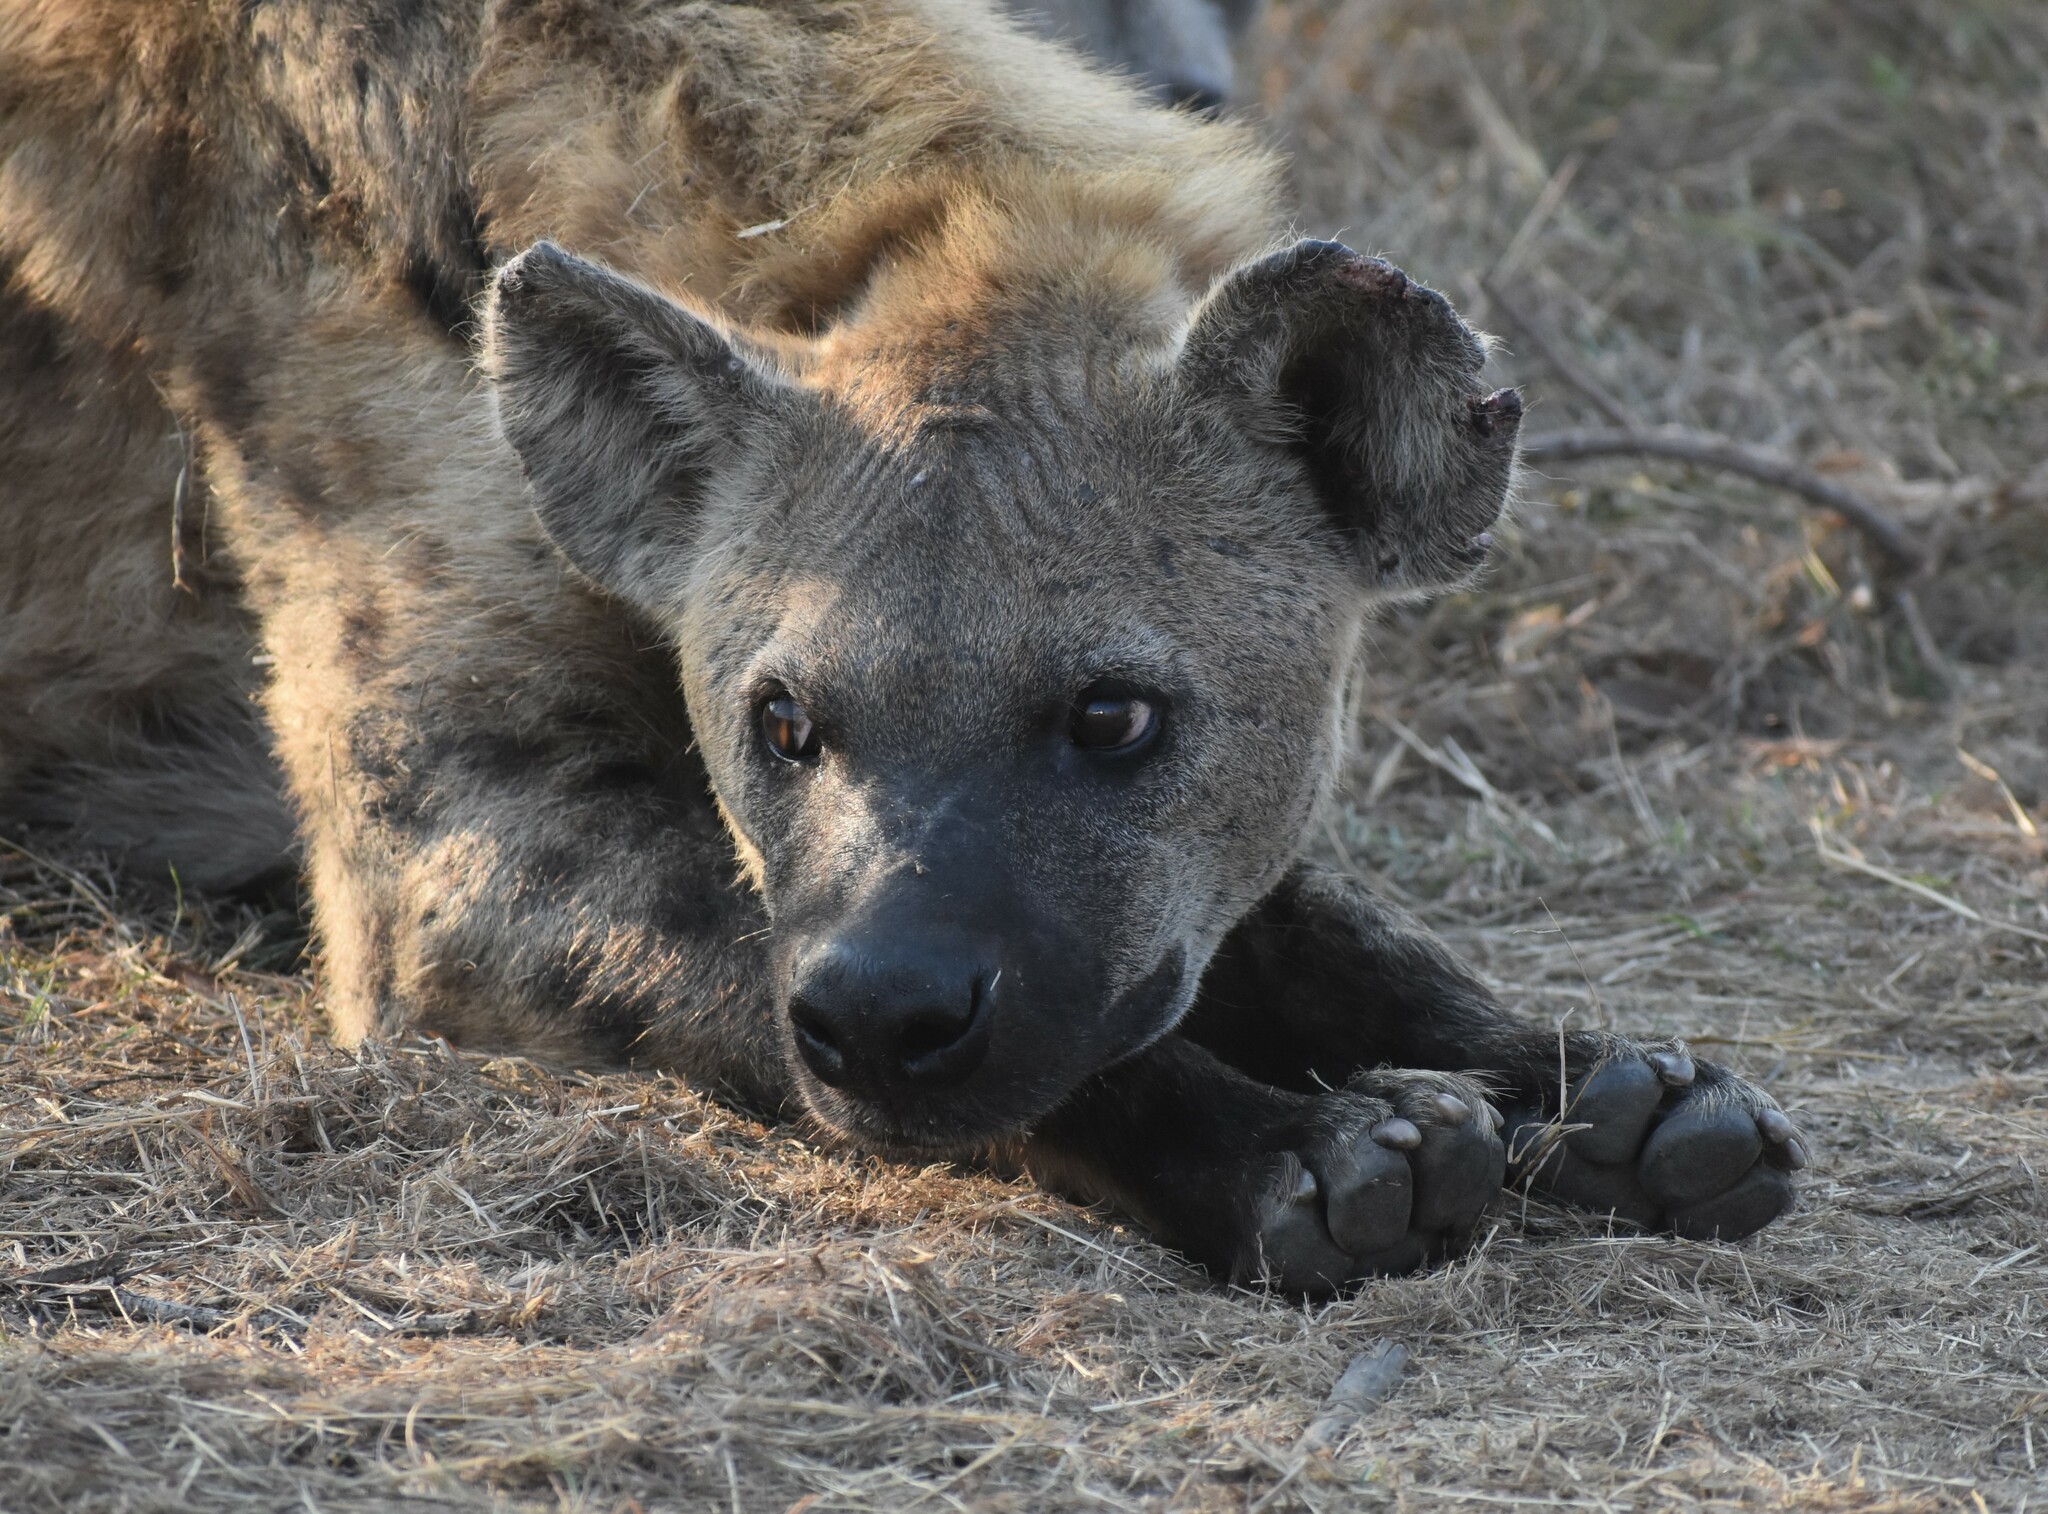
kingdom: Animalia
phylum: Chordata
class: Mammalia
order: Carnivora
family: Hyaenidae
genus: Crocuta
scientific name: Crocuta crocuta
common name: Spotted hyaena
